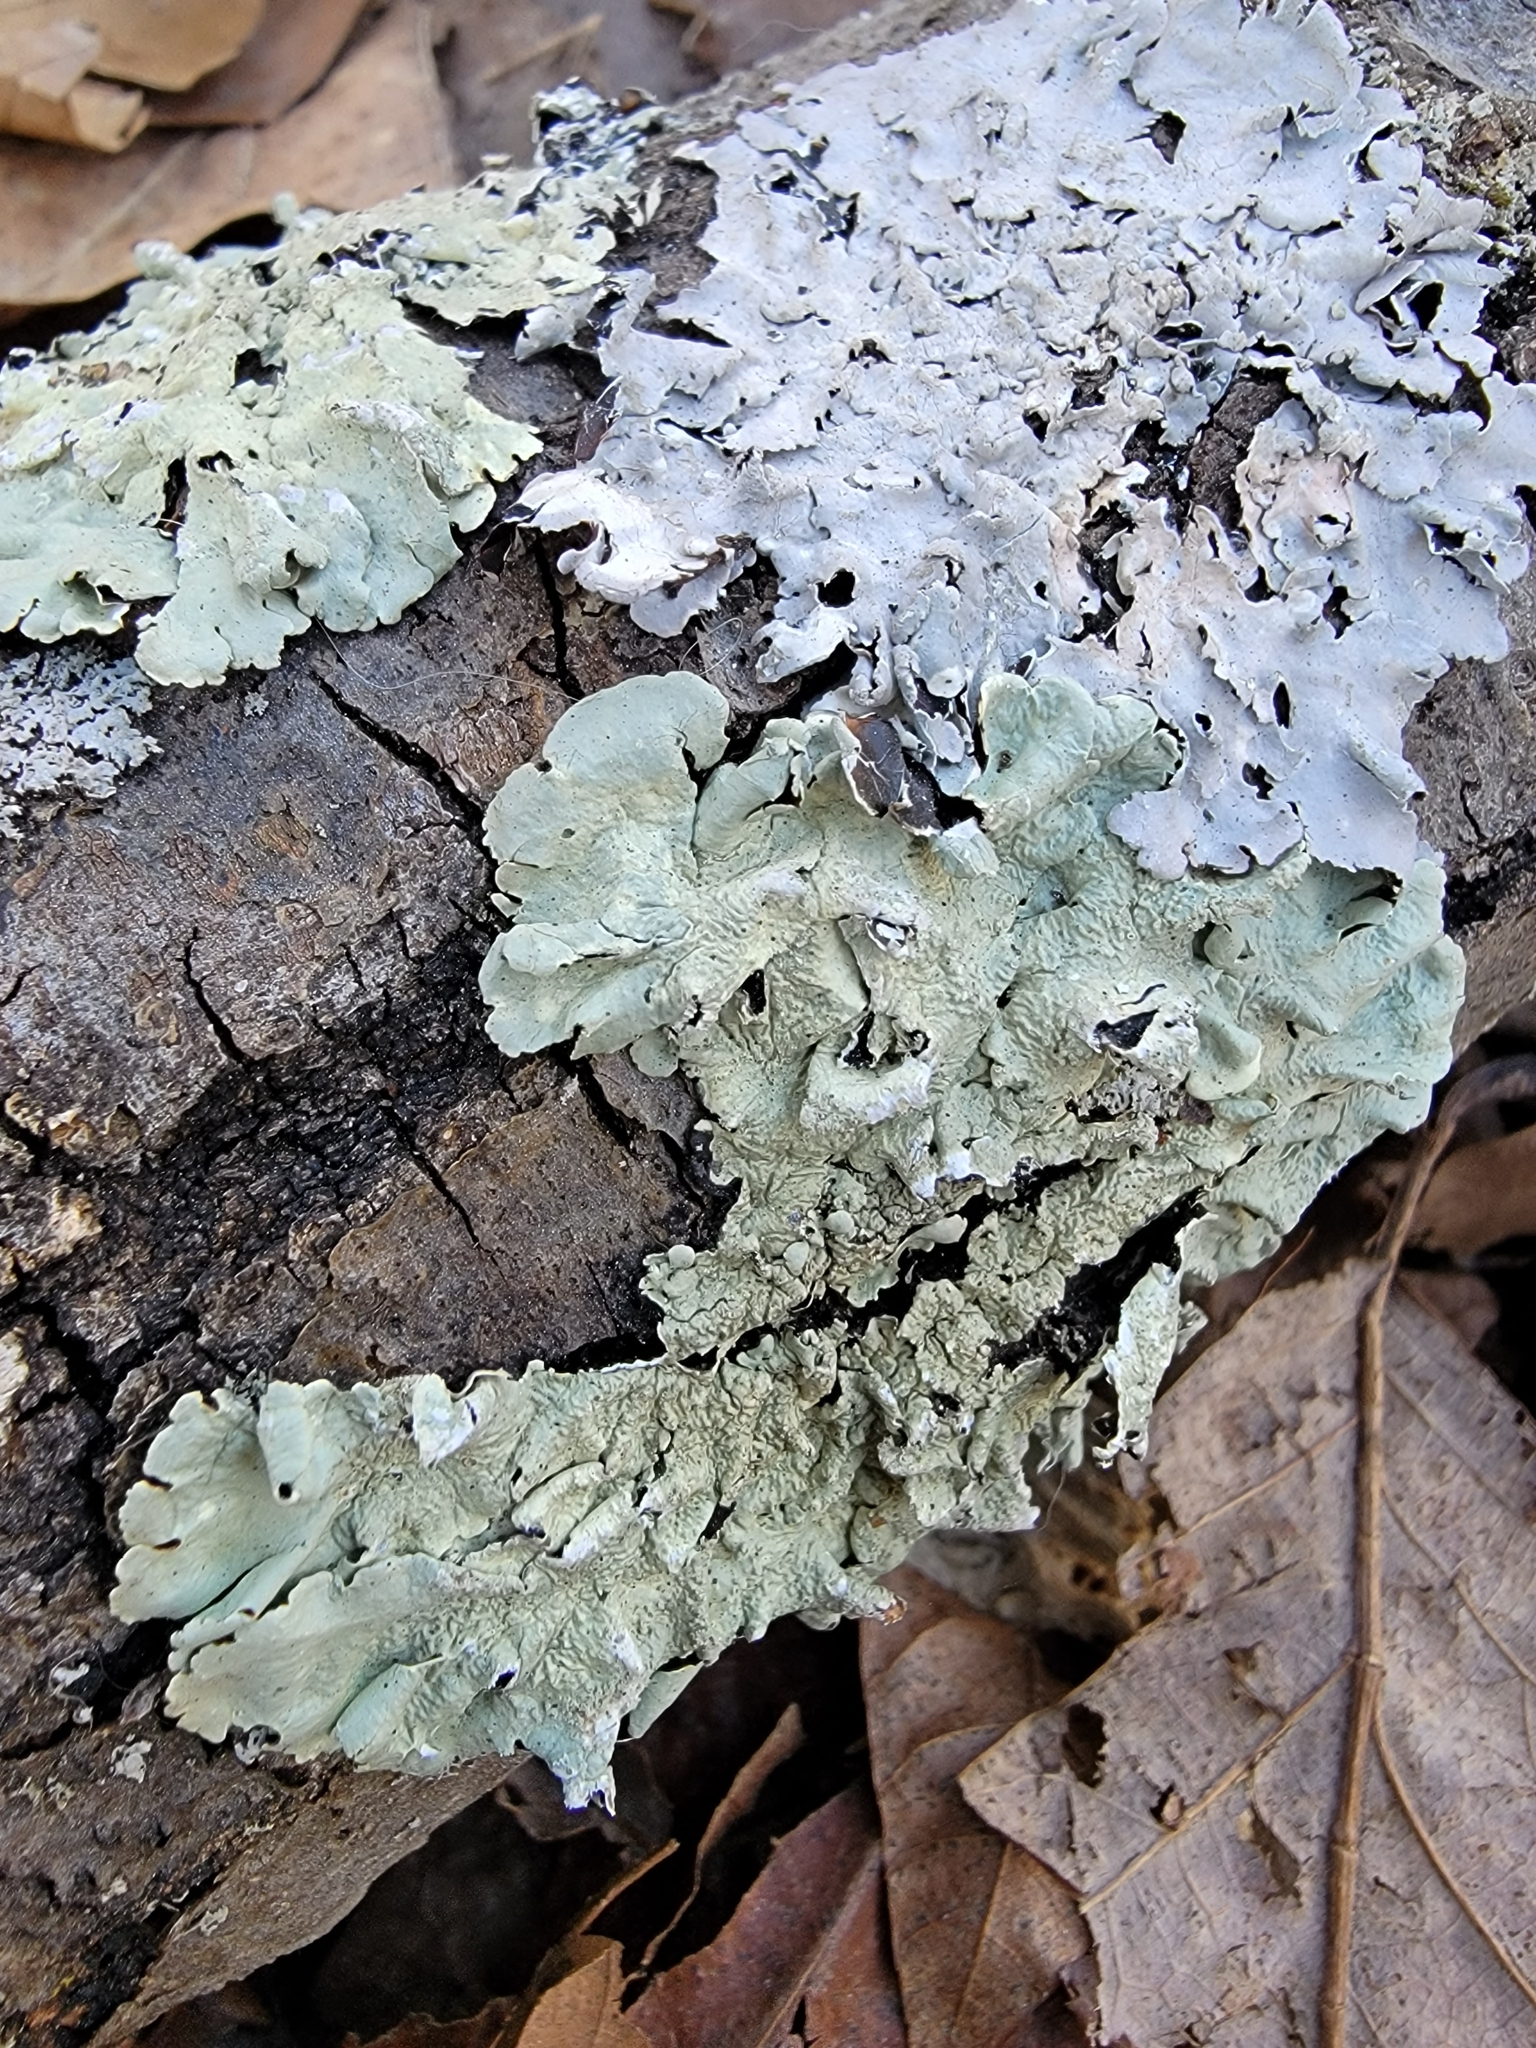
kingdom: Fungi
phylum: Ascomycota
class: Lecanoromycetes
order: Lecanorales
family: Parmeliaceae
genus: Flavoparmelia
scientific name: Flavoparmelia caperata
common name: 40-mile per hour lichen
